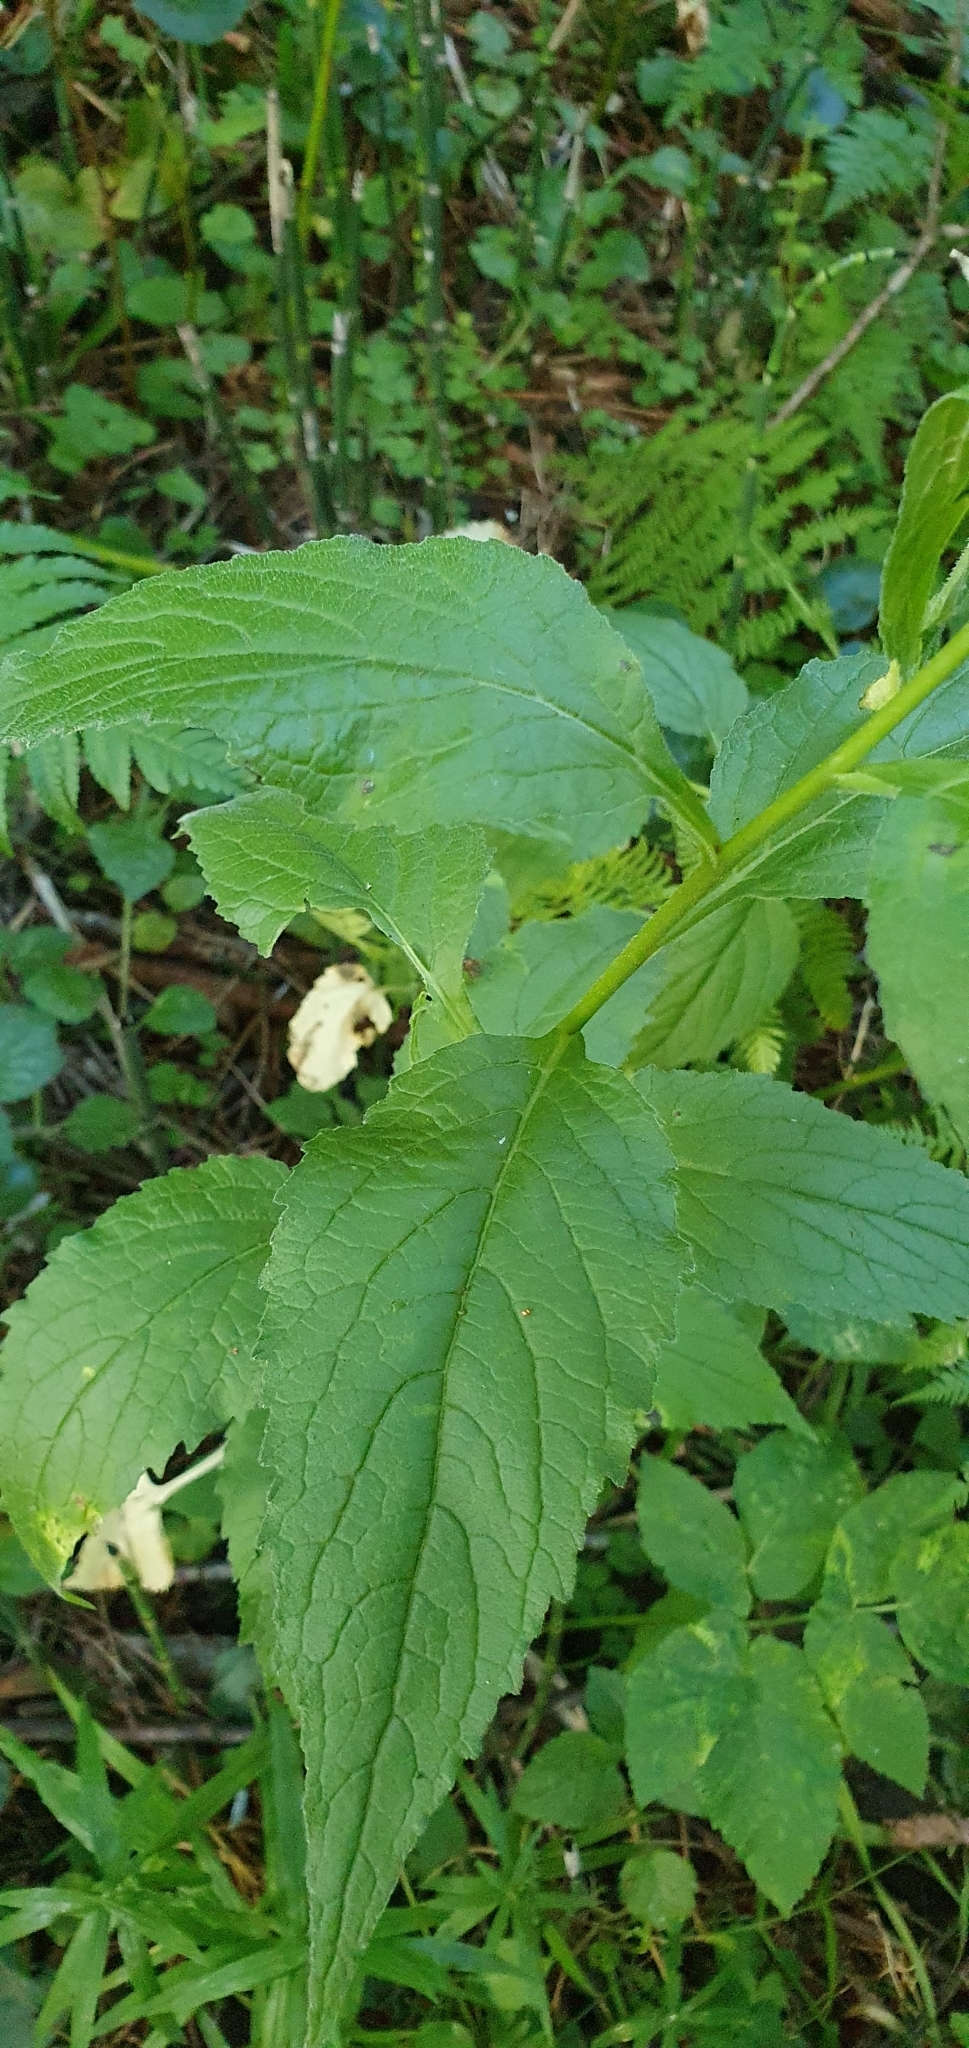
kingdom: Plantae
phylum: Tracheophyta
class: Magnoliopsida
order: Asterales
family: Campanulaceae
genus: Campanula
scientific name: Campanula latifolia
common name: Giant bellflower
